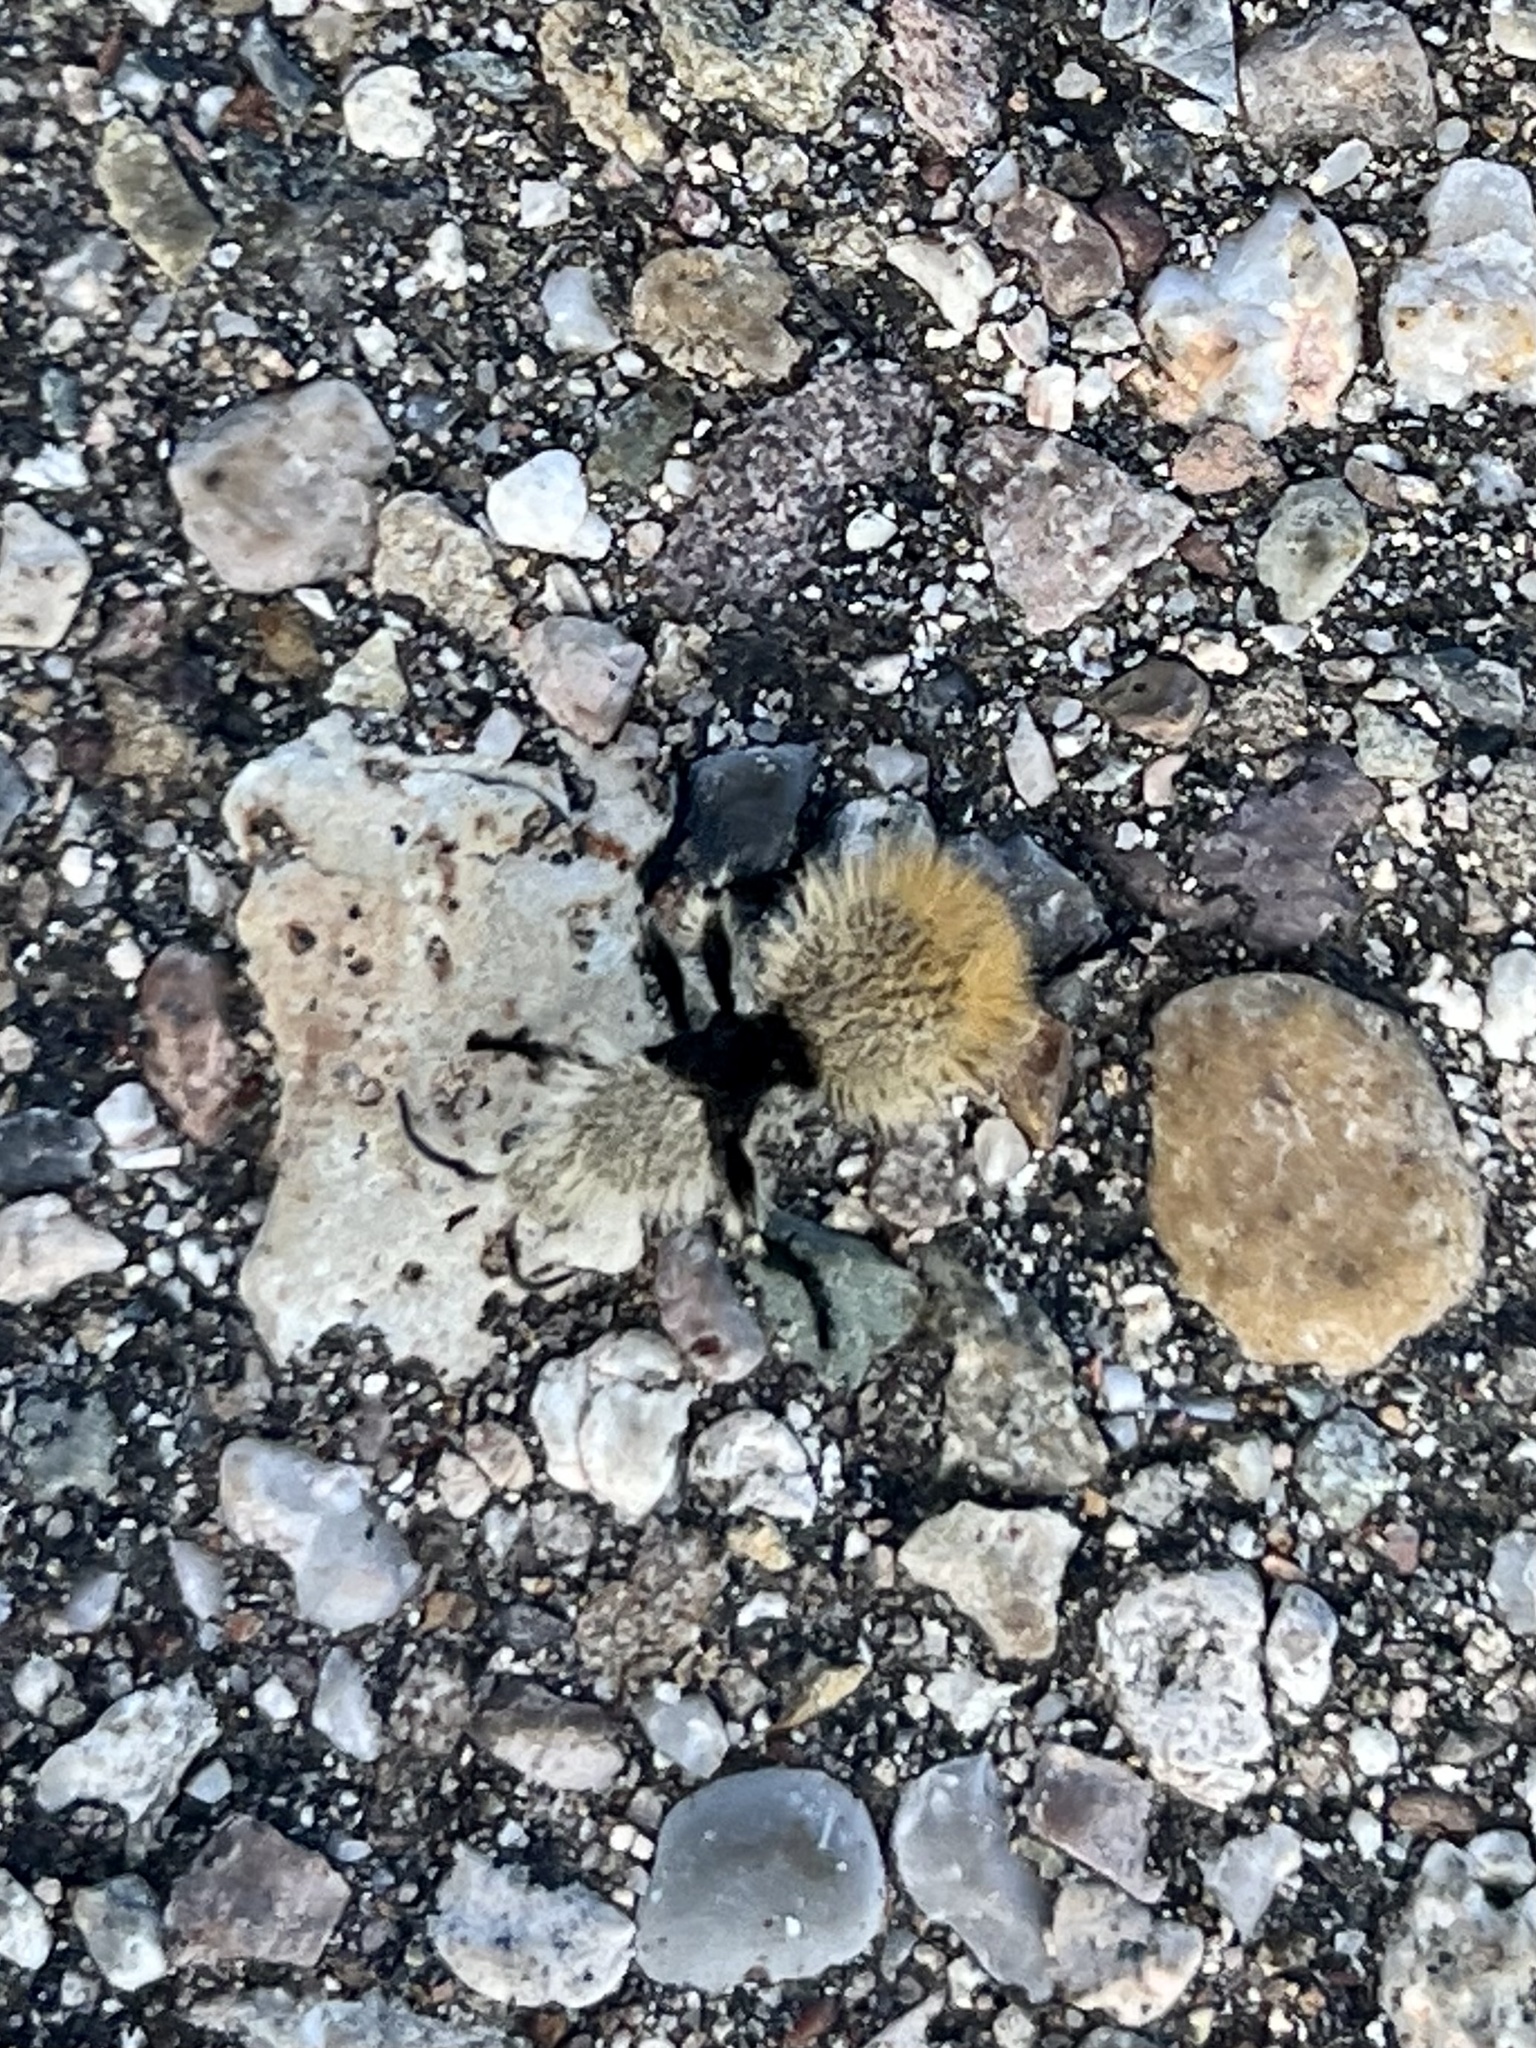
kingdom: Animalia
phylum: Arthropoda
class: Insecta
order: Hymenoptera
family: Mutillidae
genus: Dasymutilla
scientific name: Dasymutilla
